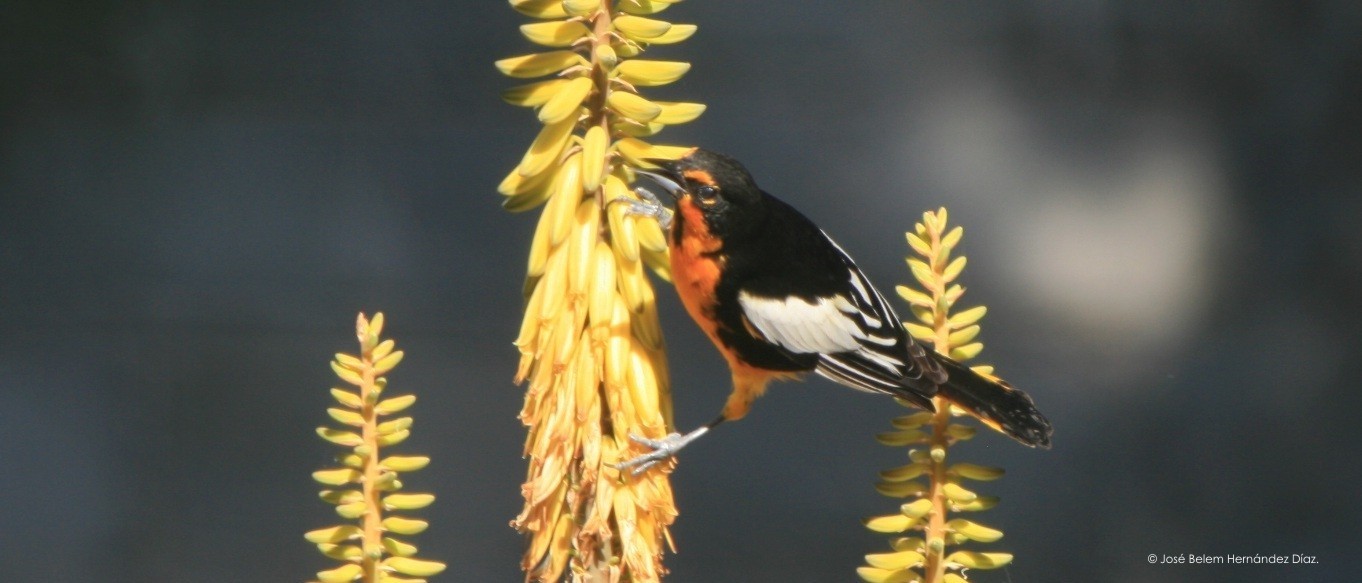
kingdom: Animalia
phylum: Chordata
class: Aves
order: Passeriformes
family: Icteridae
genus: Icterus
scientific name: Icterus abeillei
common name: Black-backed oriole
